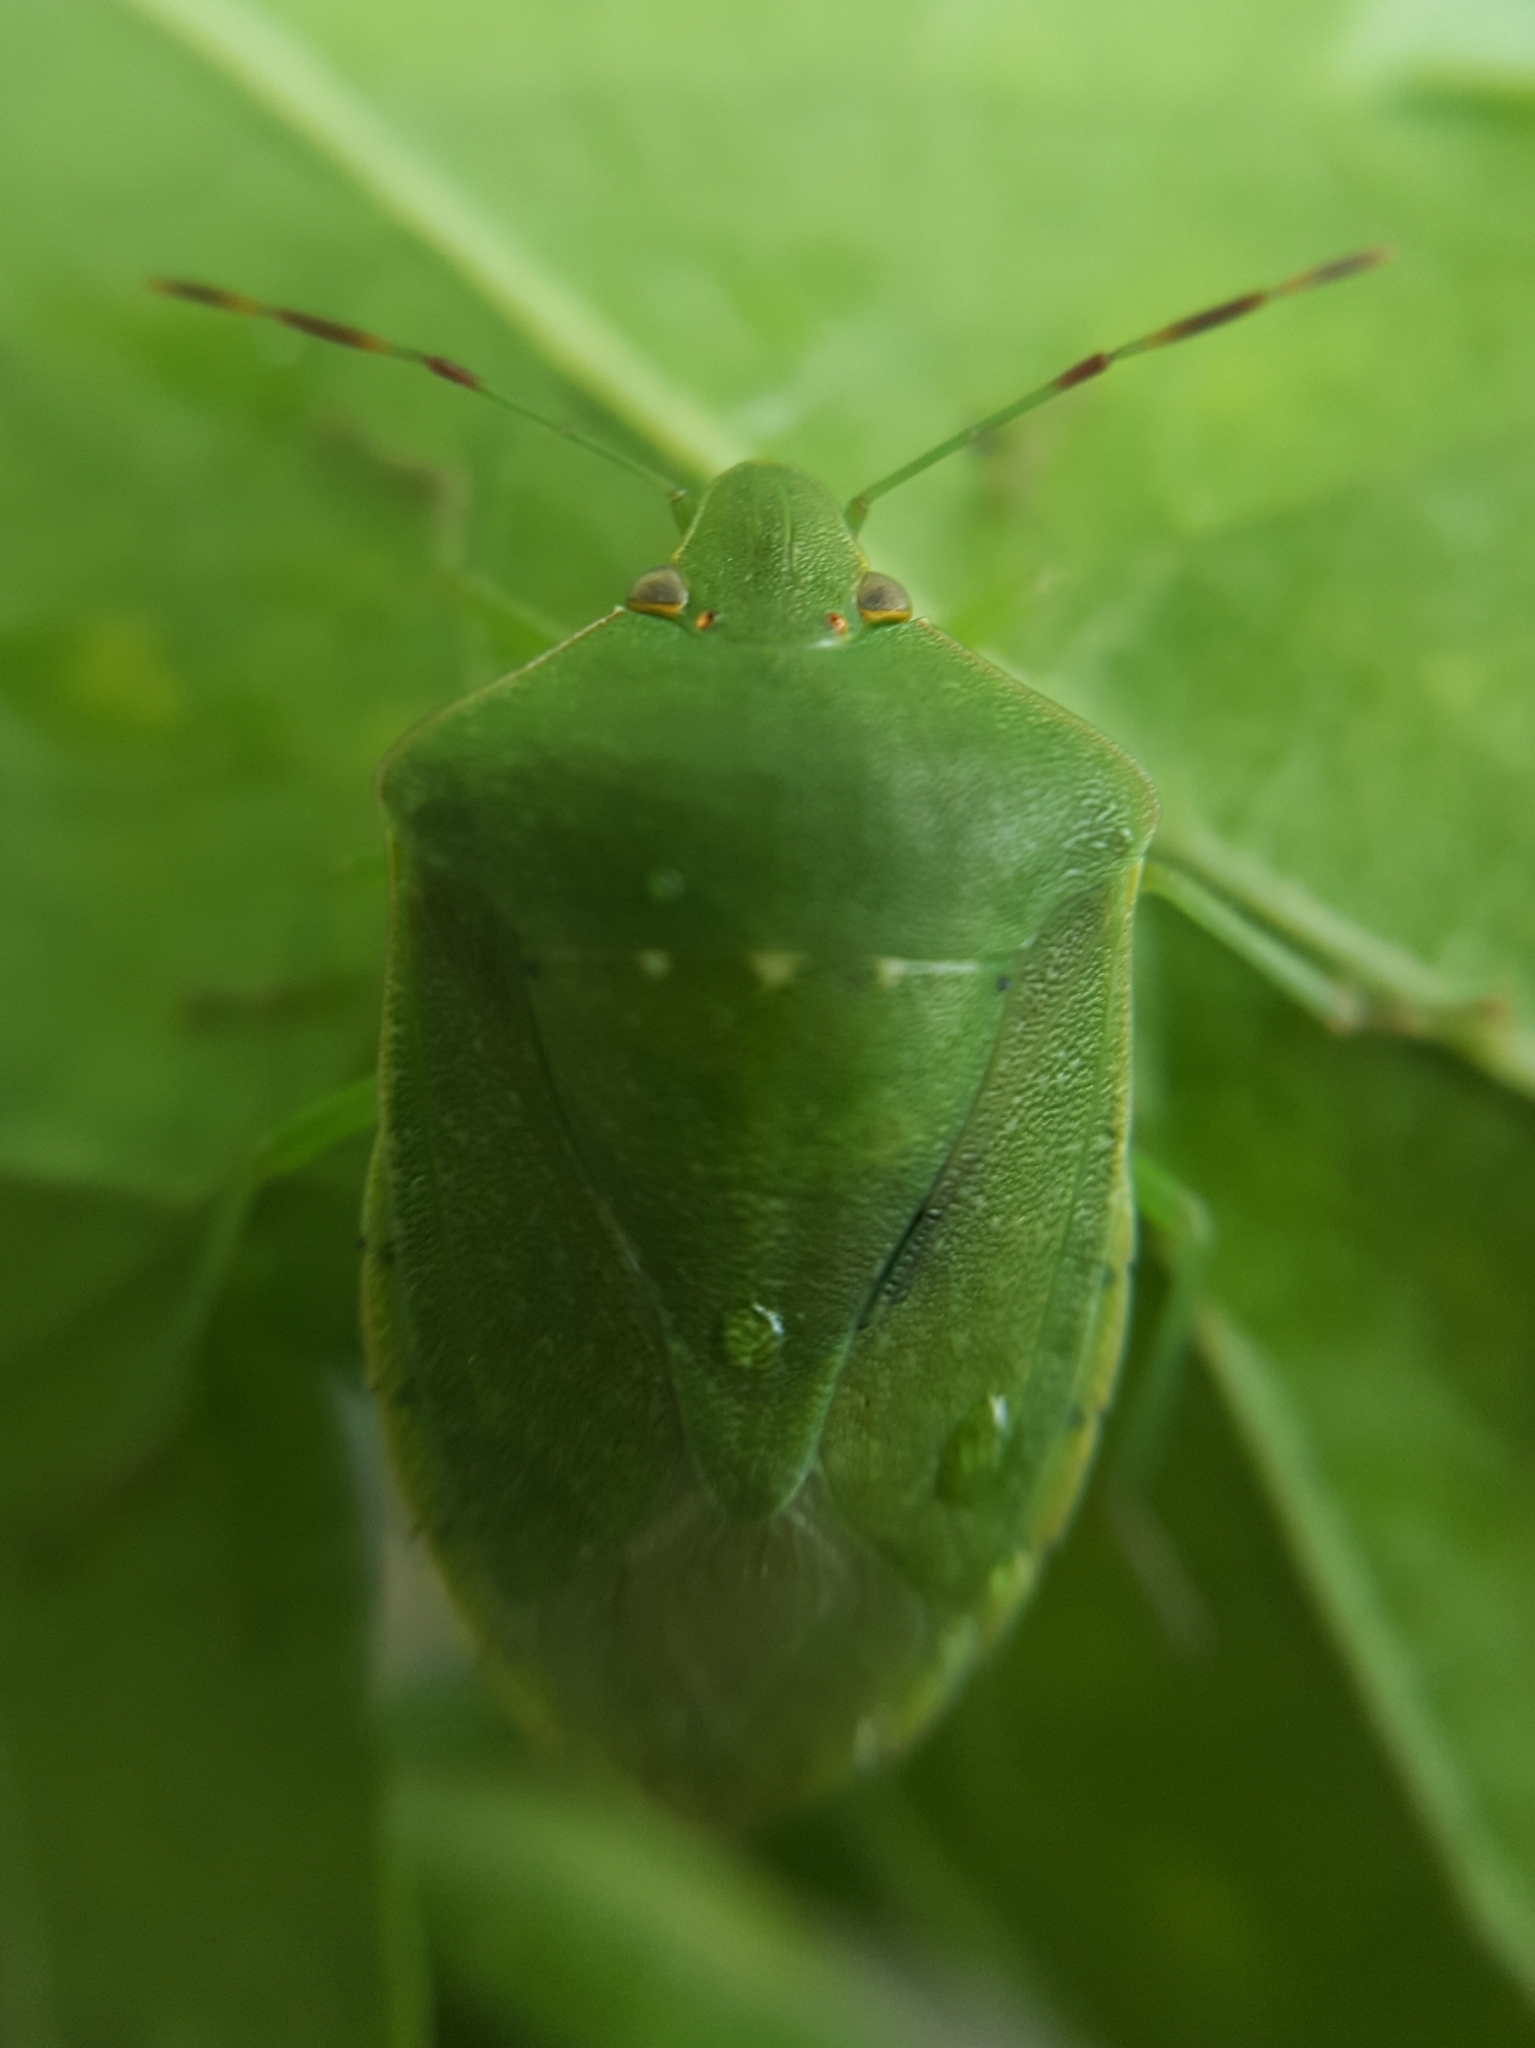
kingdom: Animalia
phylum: Arthropoda
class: Insecta
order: Hemiptera
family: Pentatomidae
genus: Nezara
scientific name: Nezara viridula
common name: Southern green stink bug
